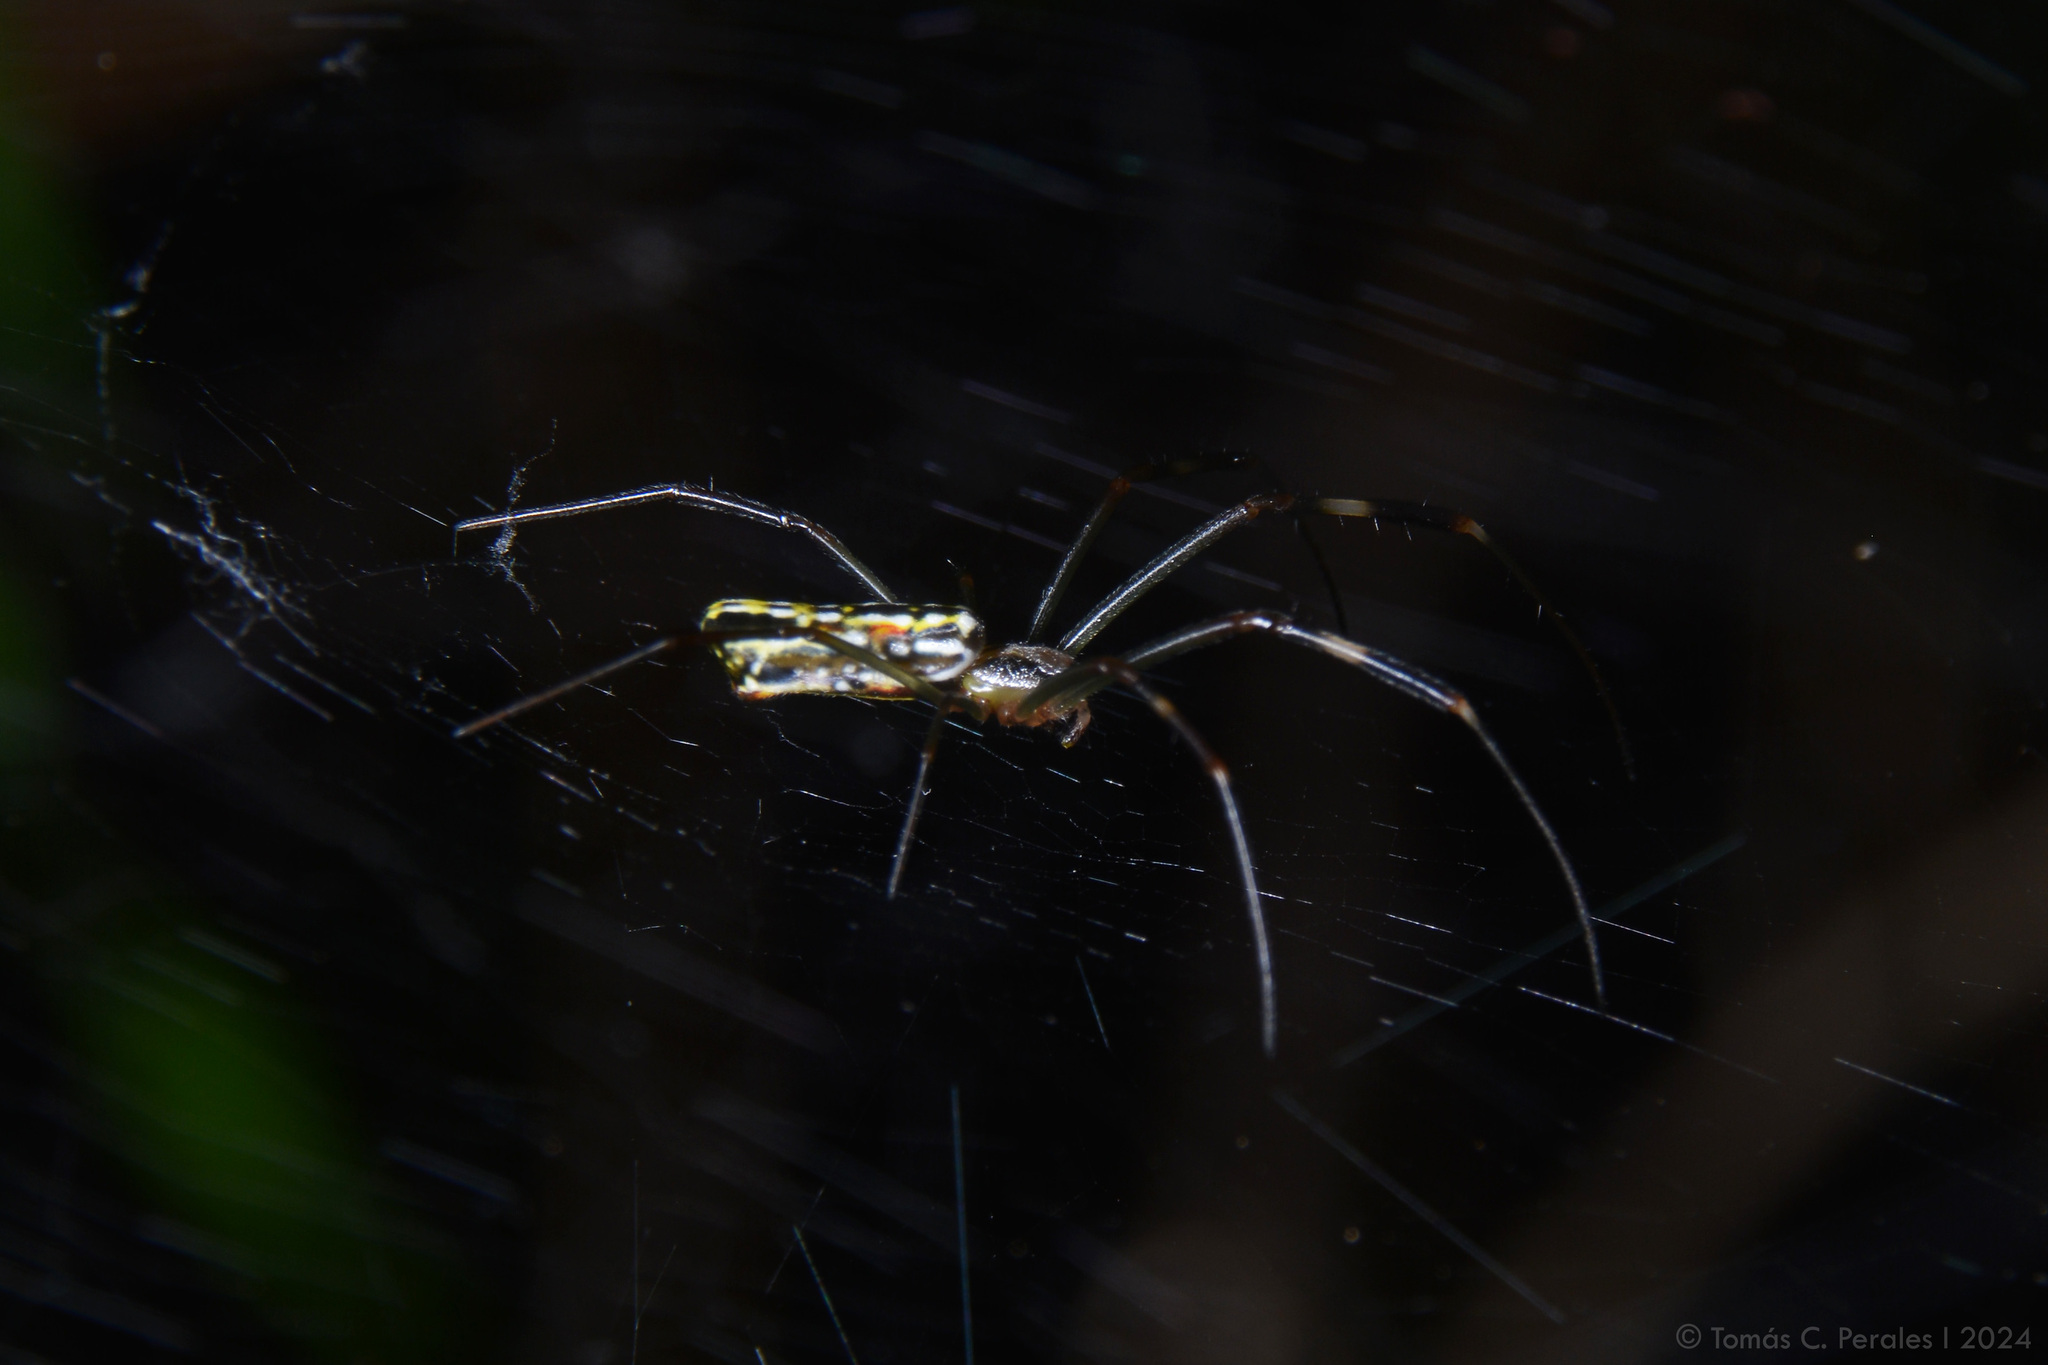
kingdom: Animalia
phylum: Arthropoda
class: Arachnida
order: Araneae
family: Araneidae
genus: Trichonephila
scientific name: Trichonephila clavipes
